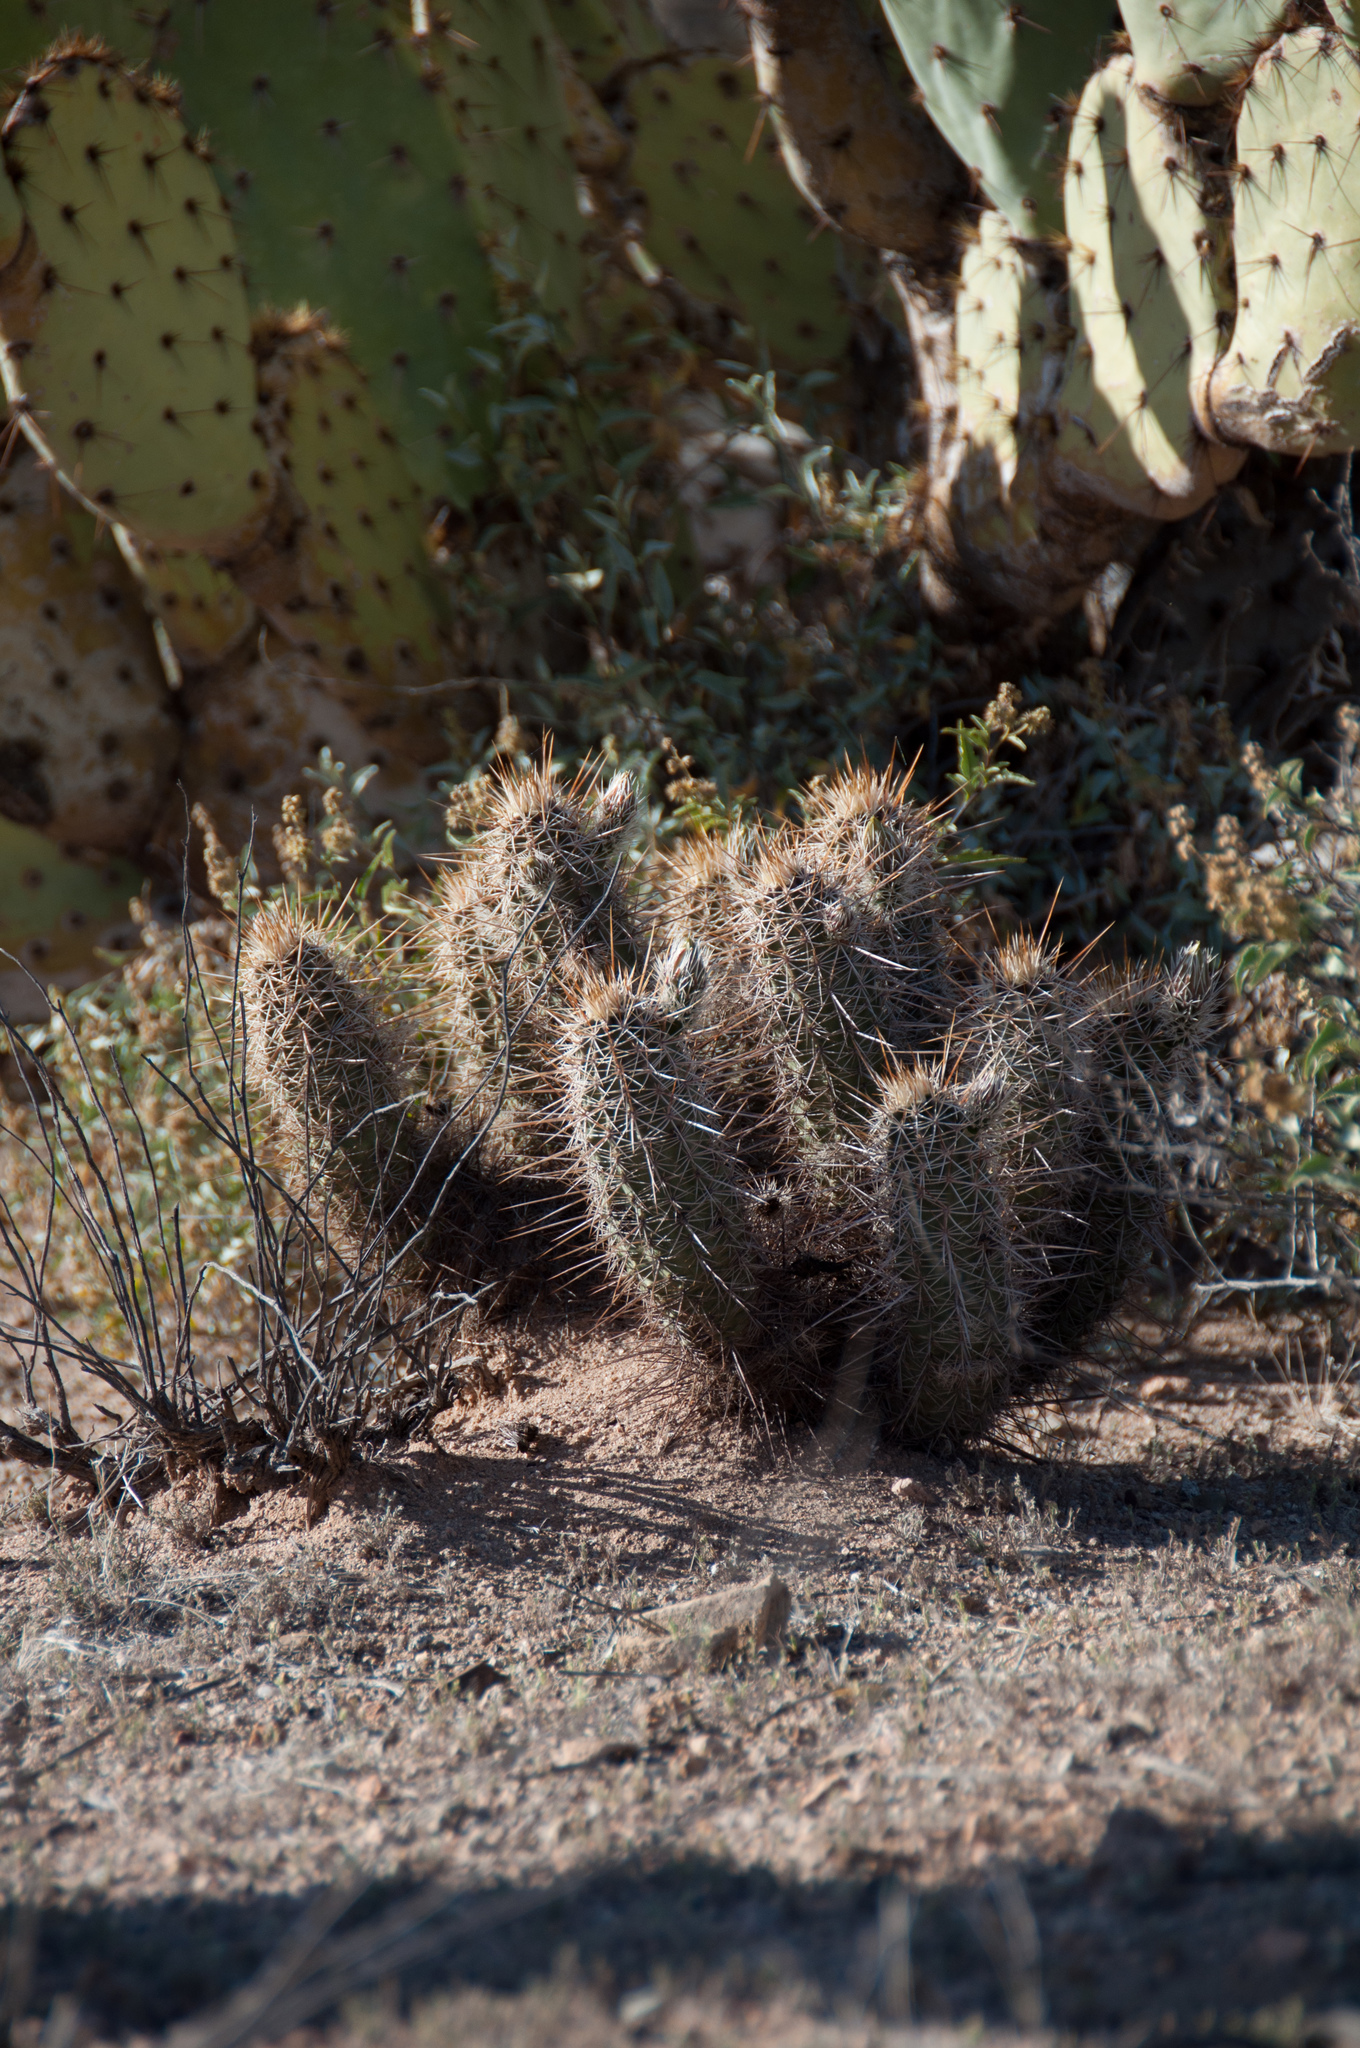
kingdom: Plantae
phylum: Tracheophyta
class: Magnoliopsida
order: Caryophyllales
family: Cactaceae
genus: Echinocereus
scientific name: Echinocereus fasciculatus
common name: Bundle hedgehog
